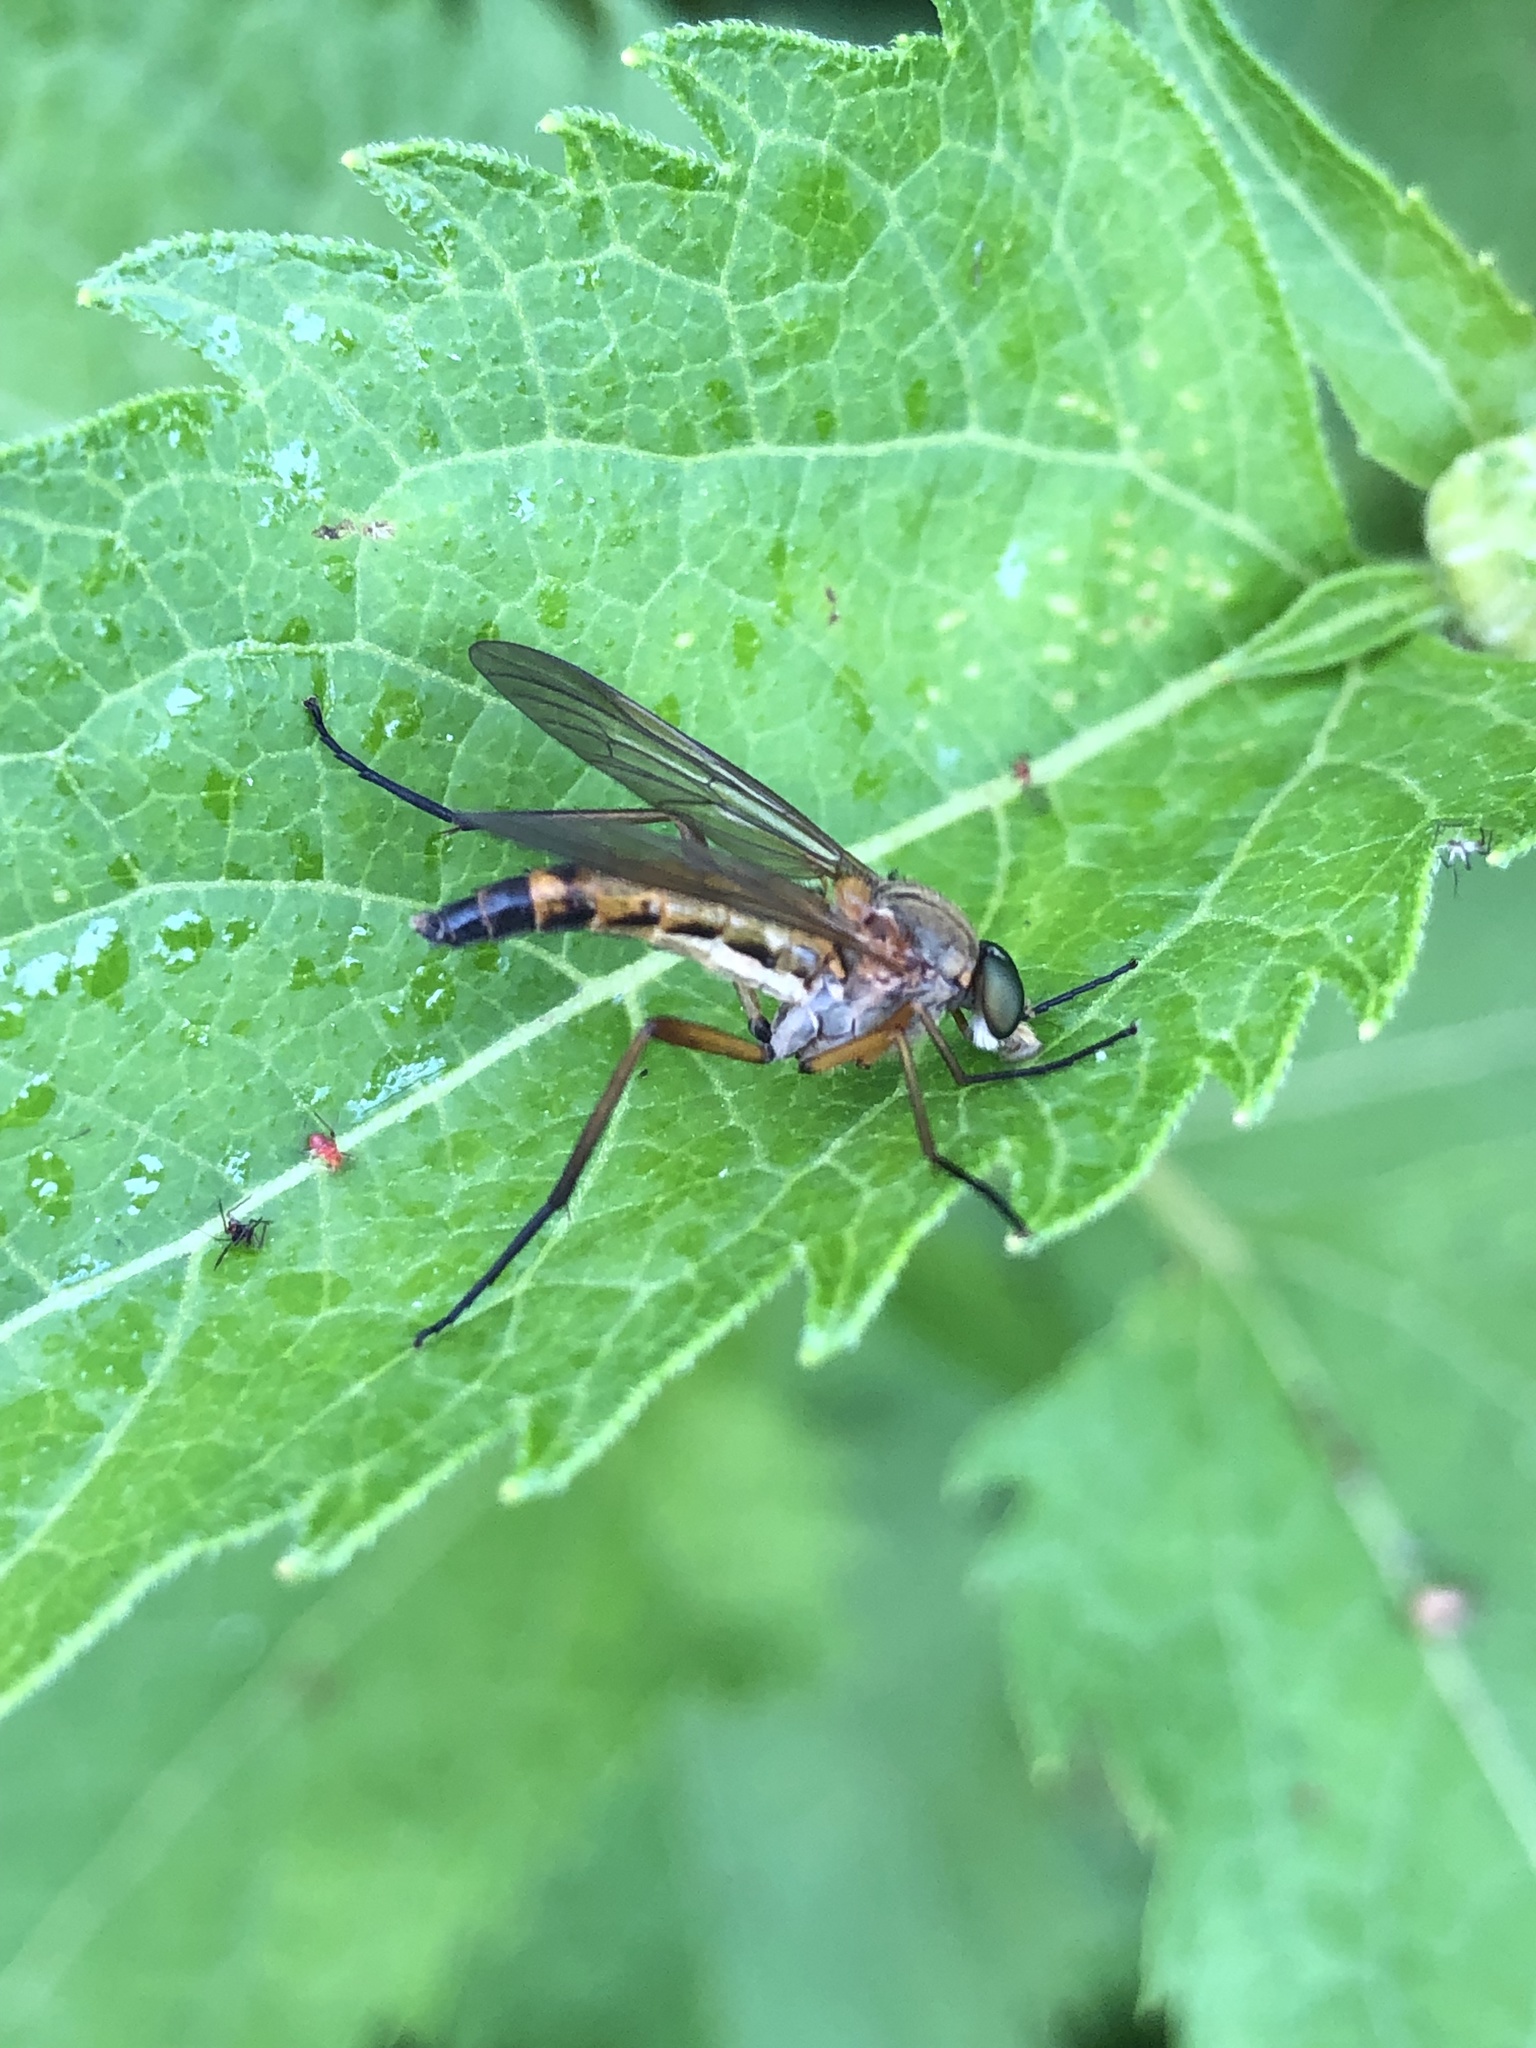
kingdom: Animalia
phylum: Arthropoda
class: Insecta
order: Diptera
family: Rhagionidae
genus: Rhagio
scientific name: Rhagio tringaria
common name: Marsh snipefly
